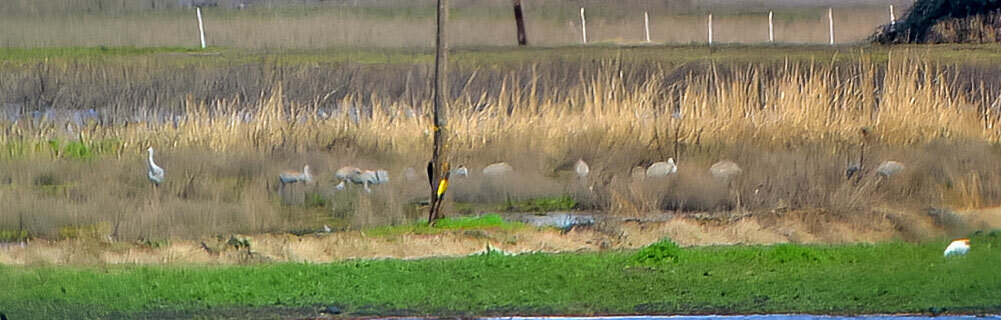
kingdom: Animalia
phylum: Chordata
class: Aves
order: Gruiformes
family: Gruidae
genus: Grus
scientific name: Grus canadensis
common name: Sandhill crane
